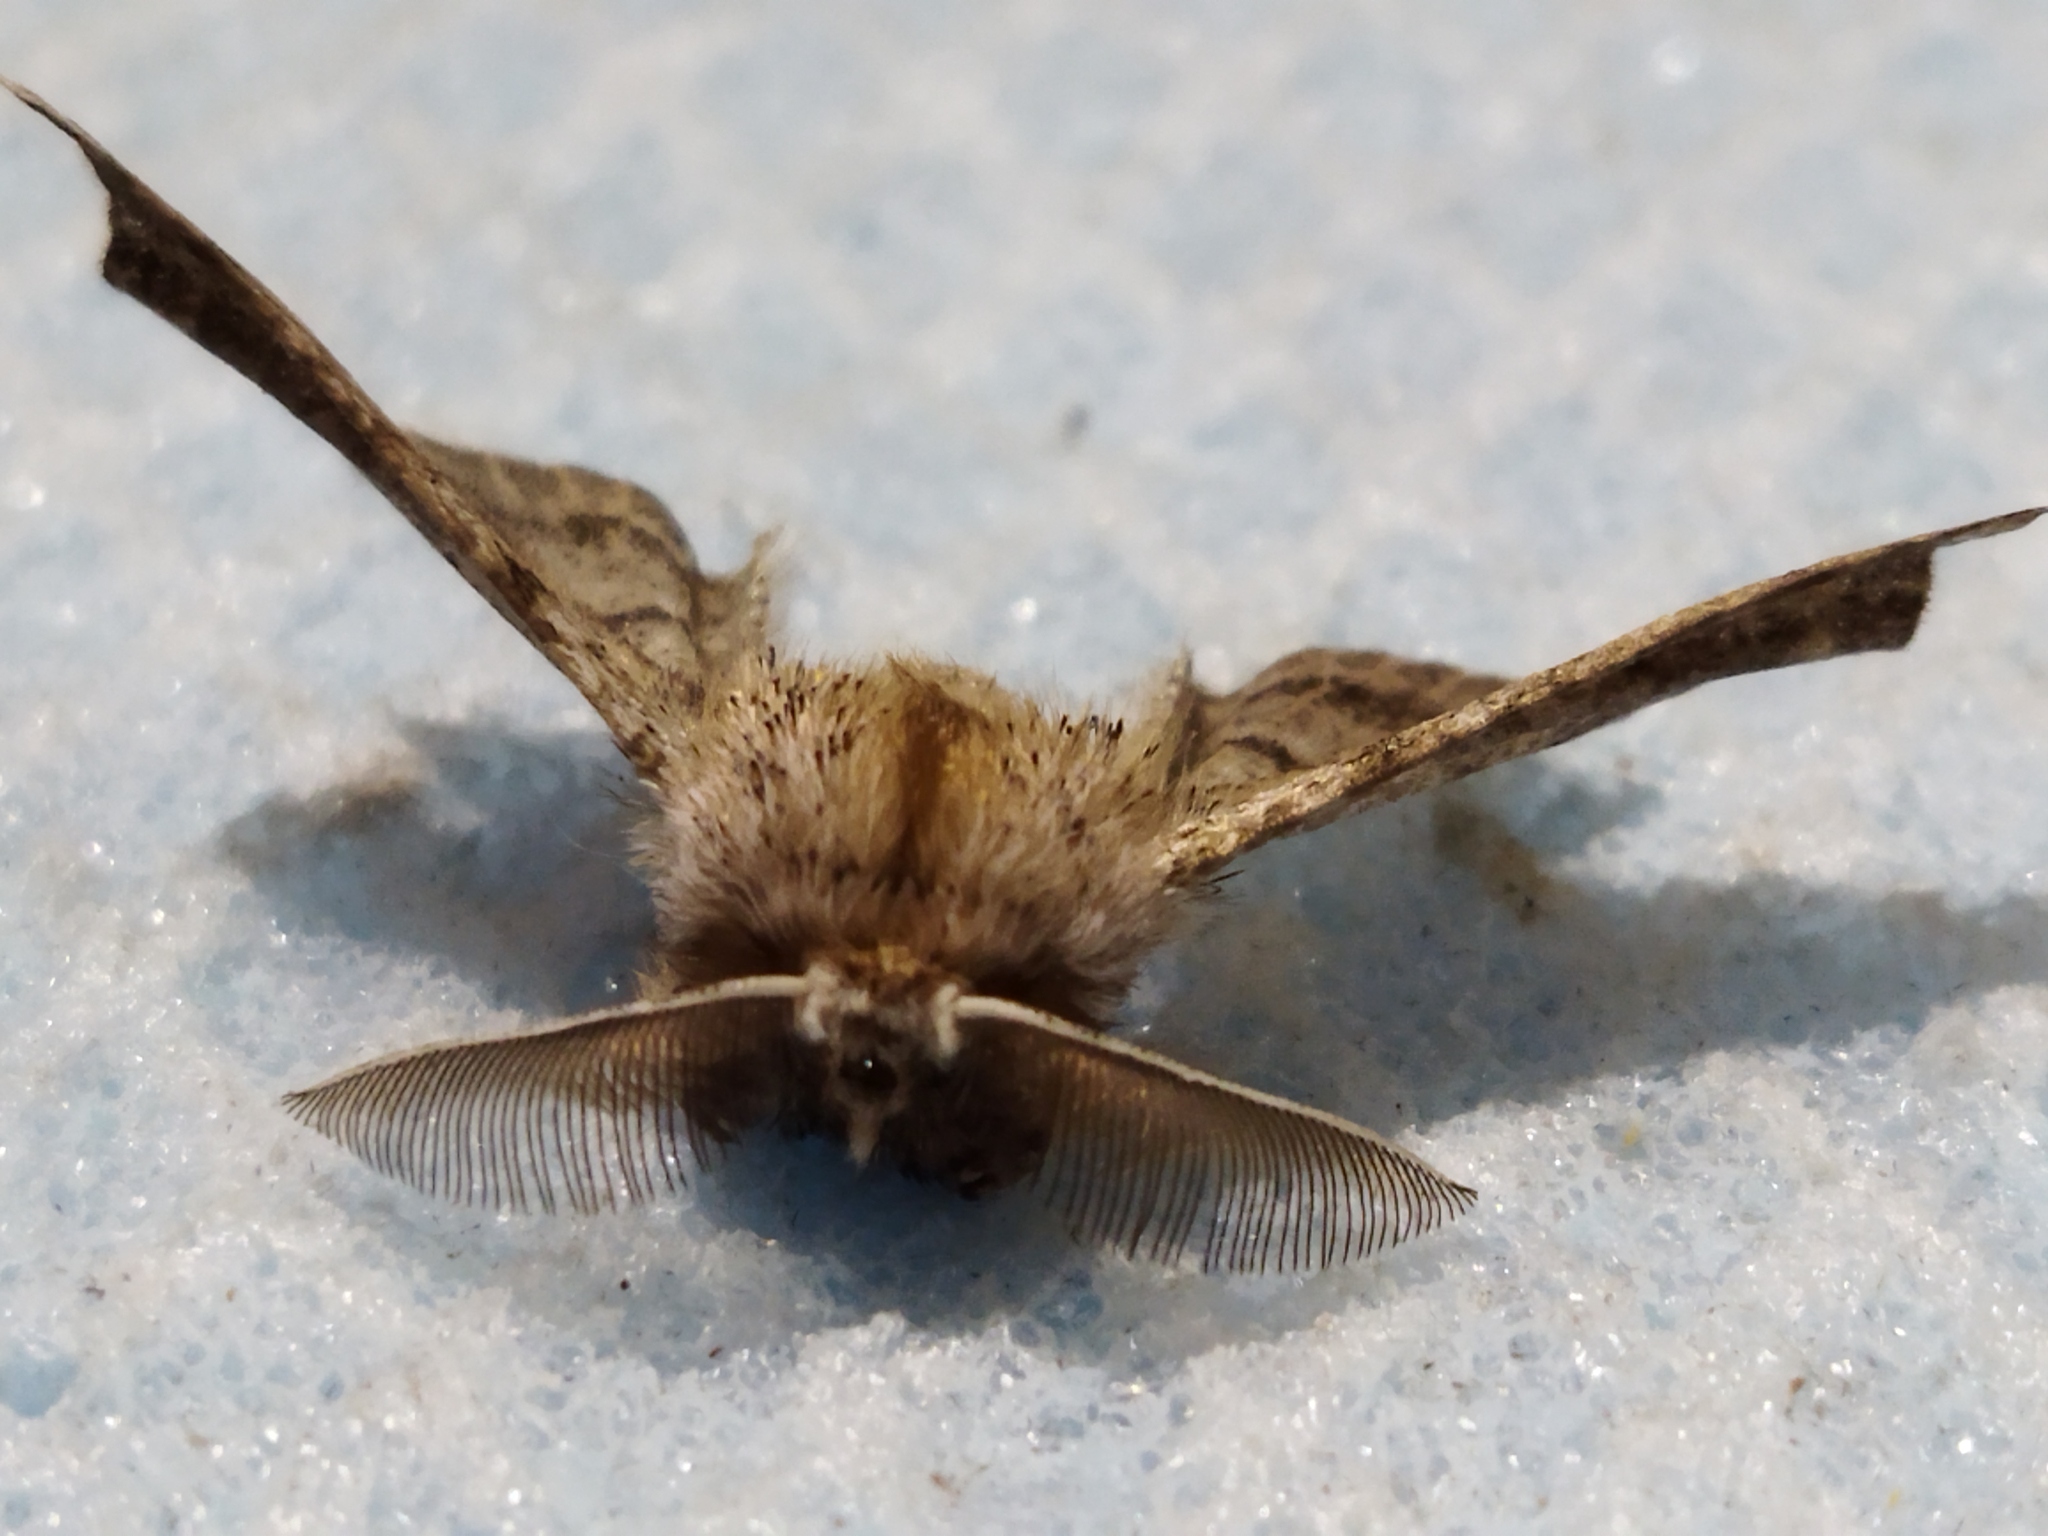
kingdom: Animalia
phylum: Arthropoda
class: Insecta
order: Lepidoptera
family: Geometridae
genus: Apochima
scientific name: Apochima flabellaria
